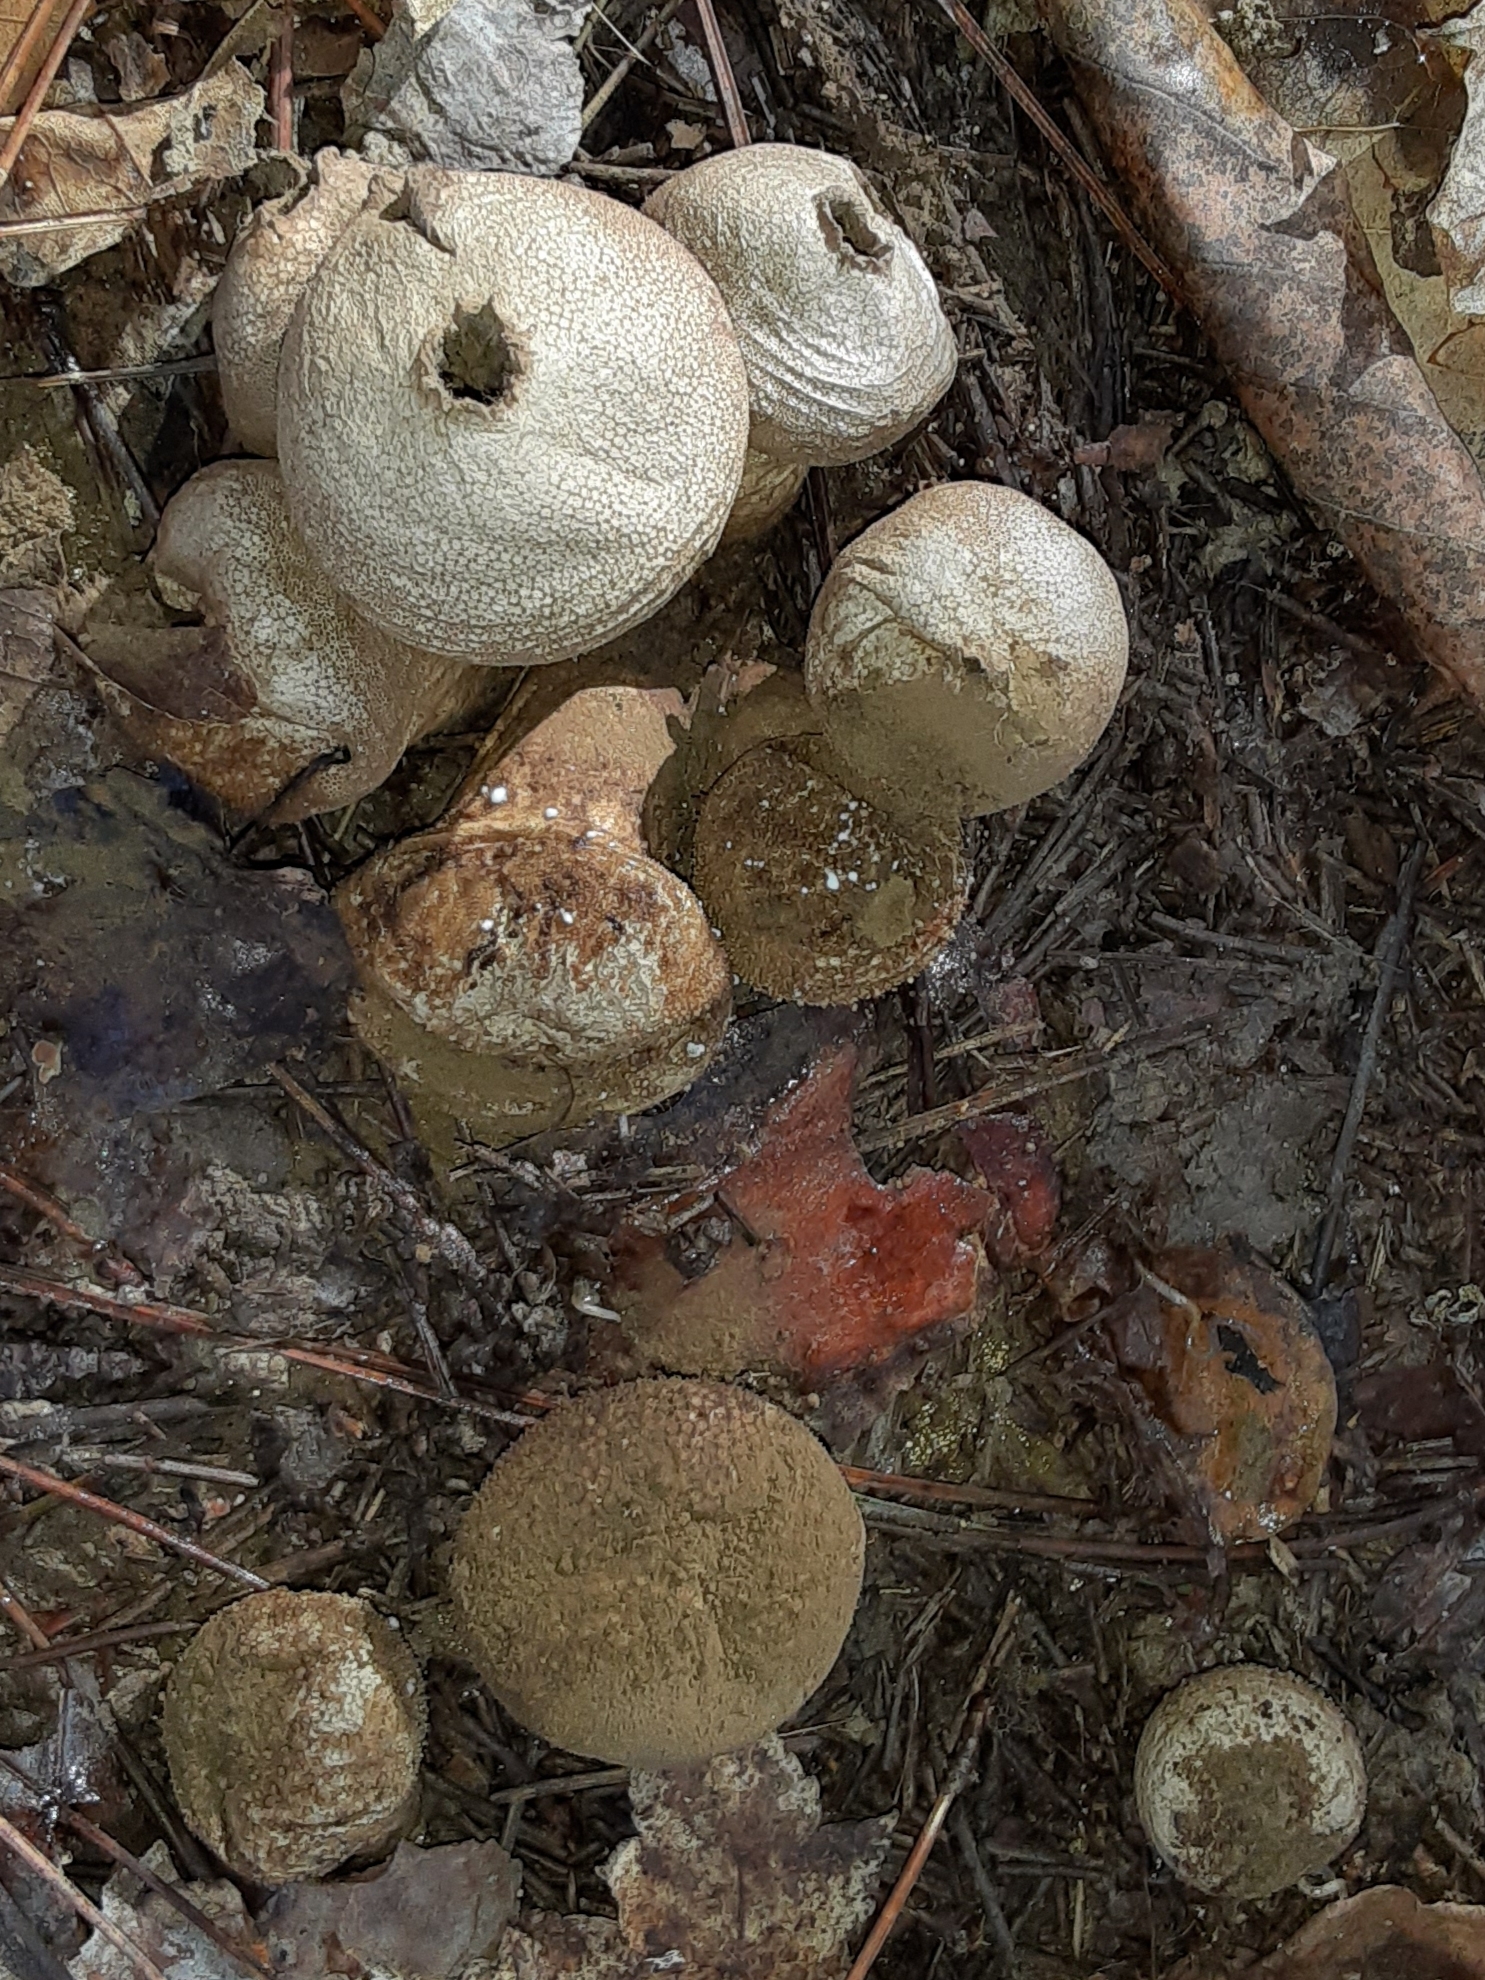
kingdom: Fungi
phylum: Basidiomycota
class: Agaricomycetes
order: Agaricales
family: Lycoperdaceae
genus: Lycoperdon
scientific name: Lycoperdon perlatum
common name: Common puffball
